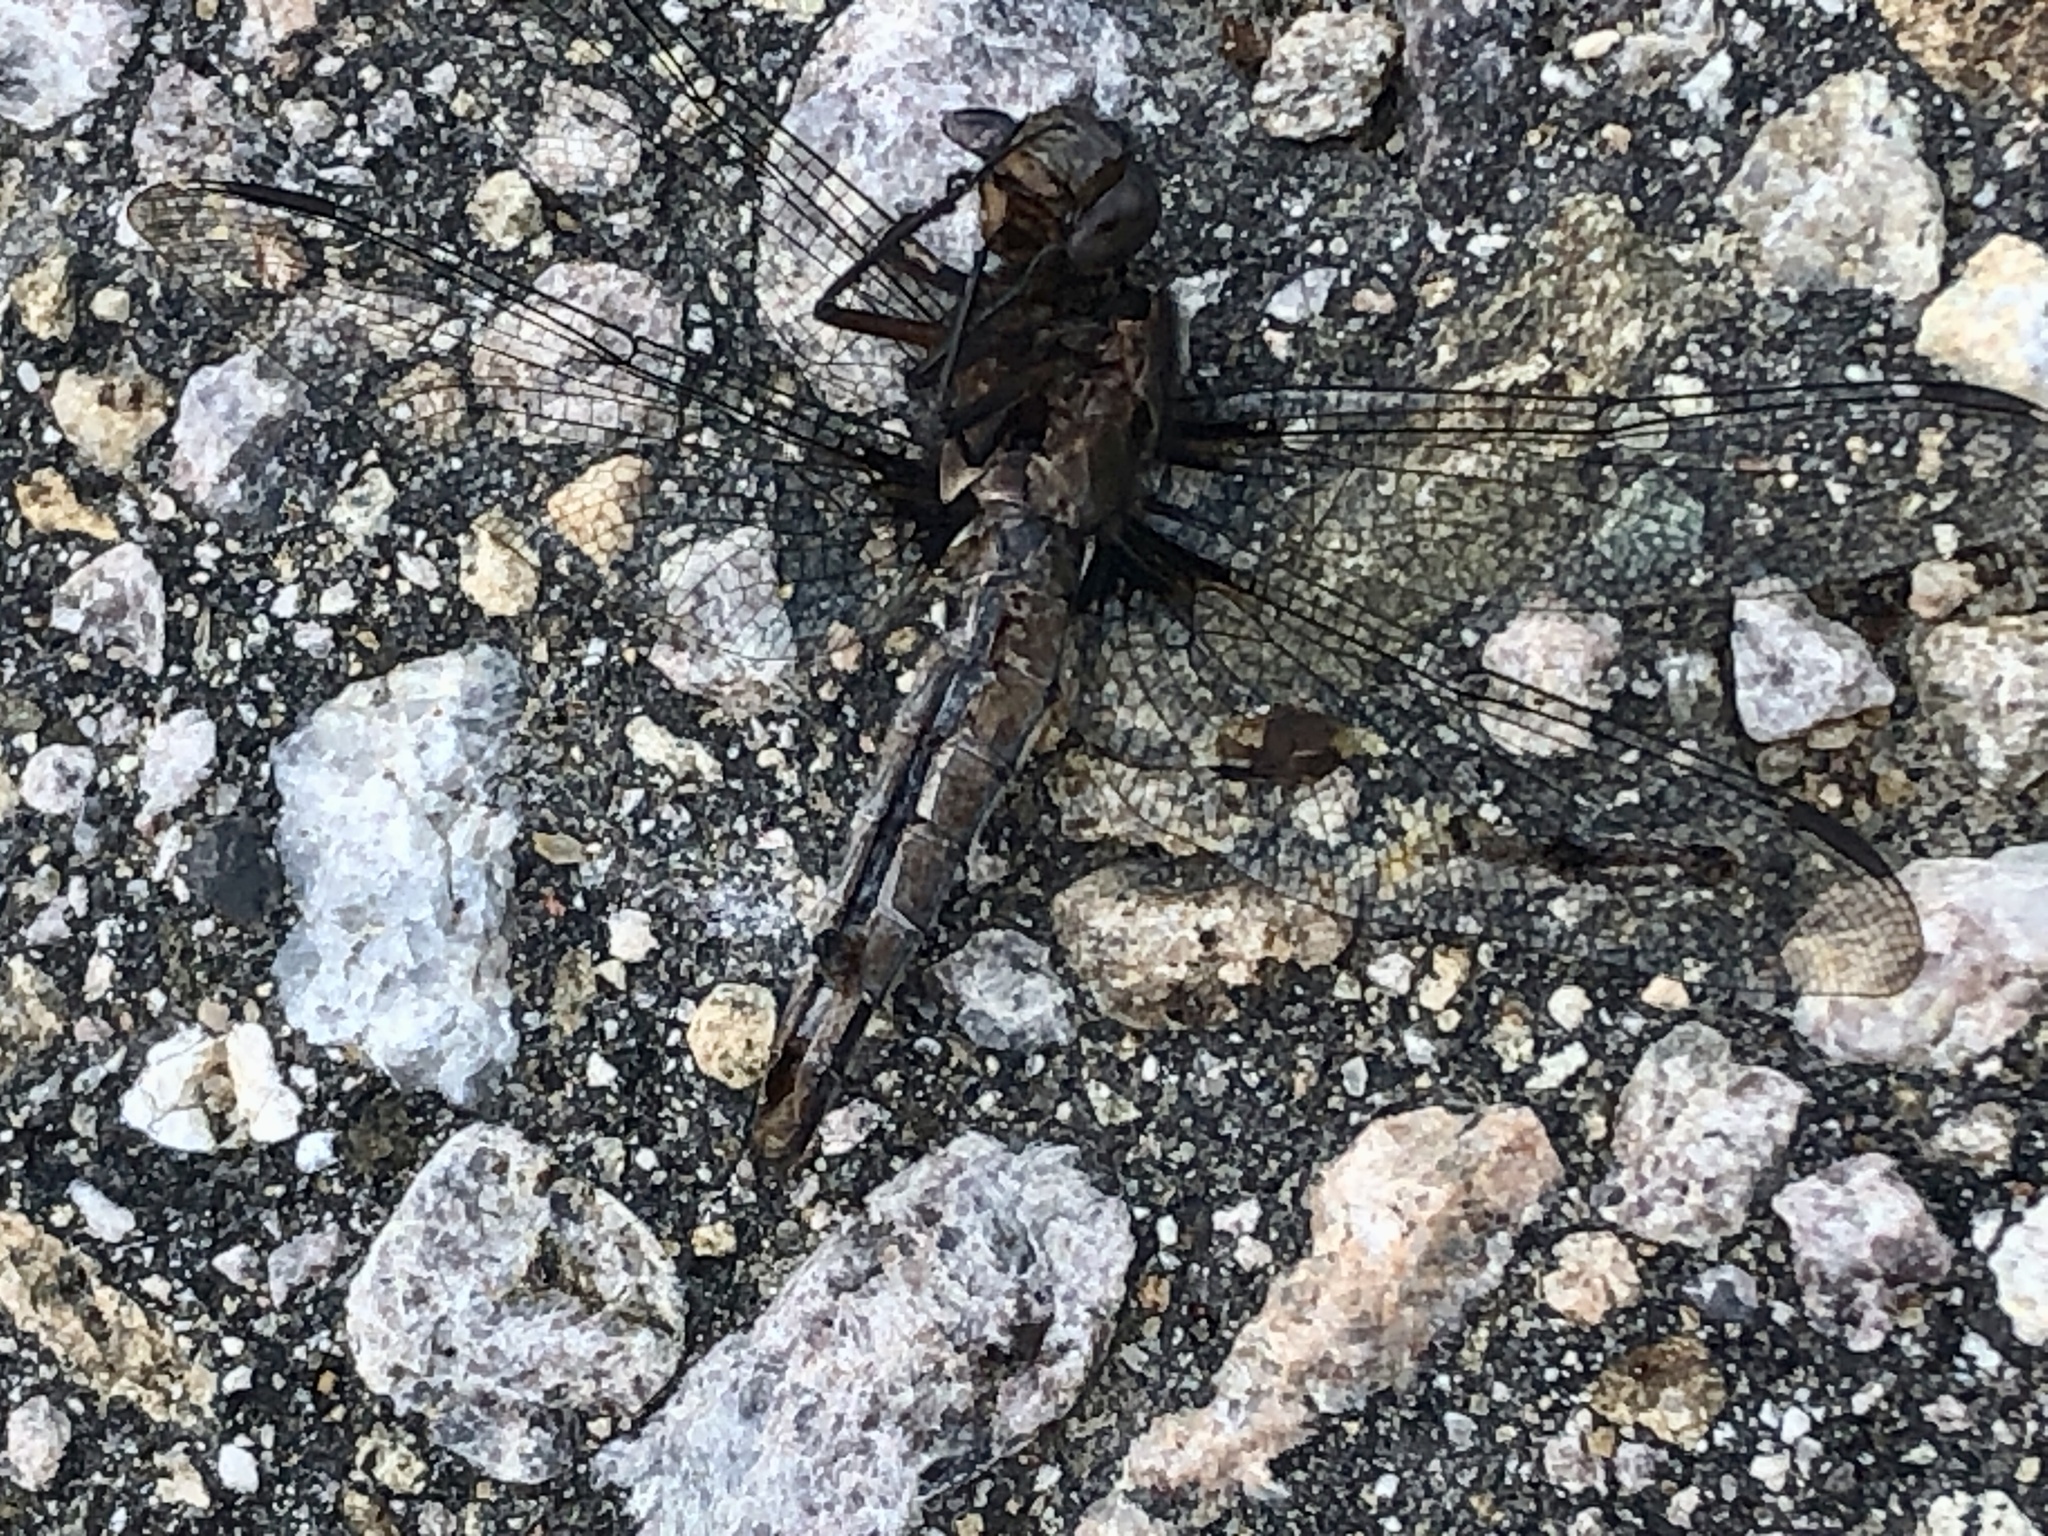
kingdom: Animalia
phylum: Arthropoda
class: Insecta
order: Odonata
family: Libellulidae
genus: Ladona
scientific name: Ladona julia
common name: Chalk-fronted corporal
